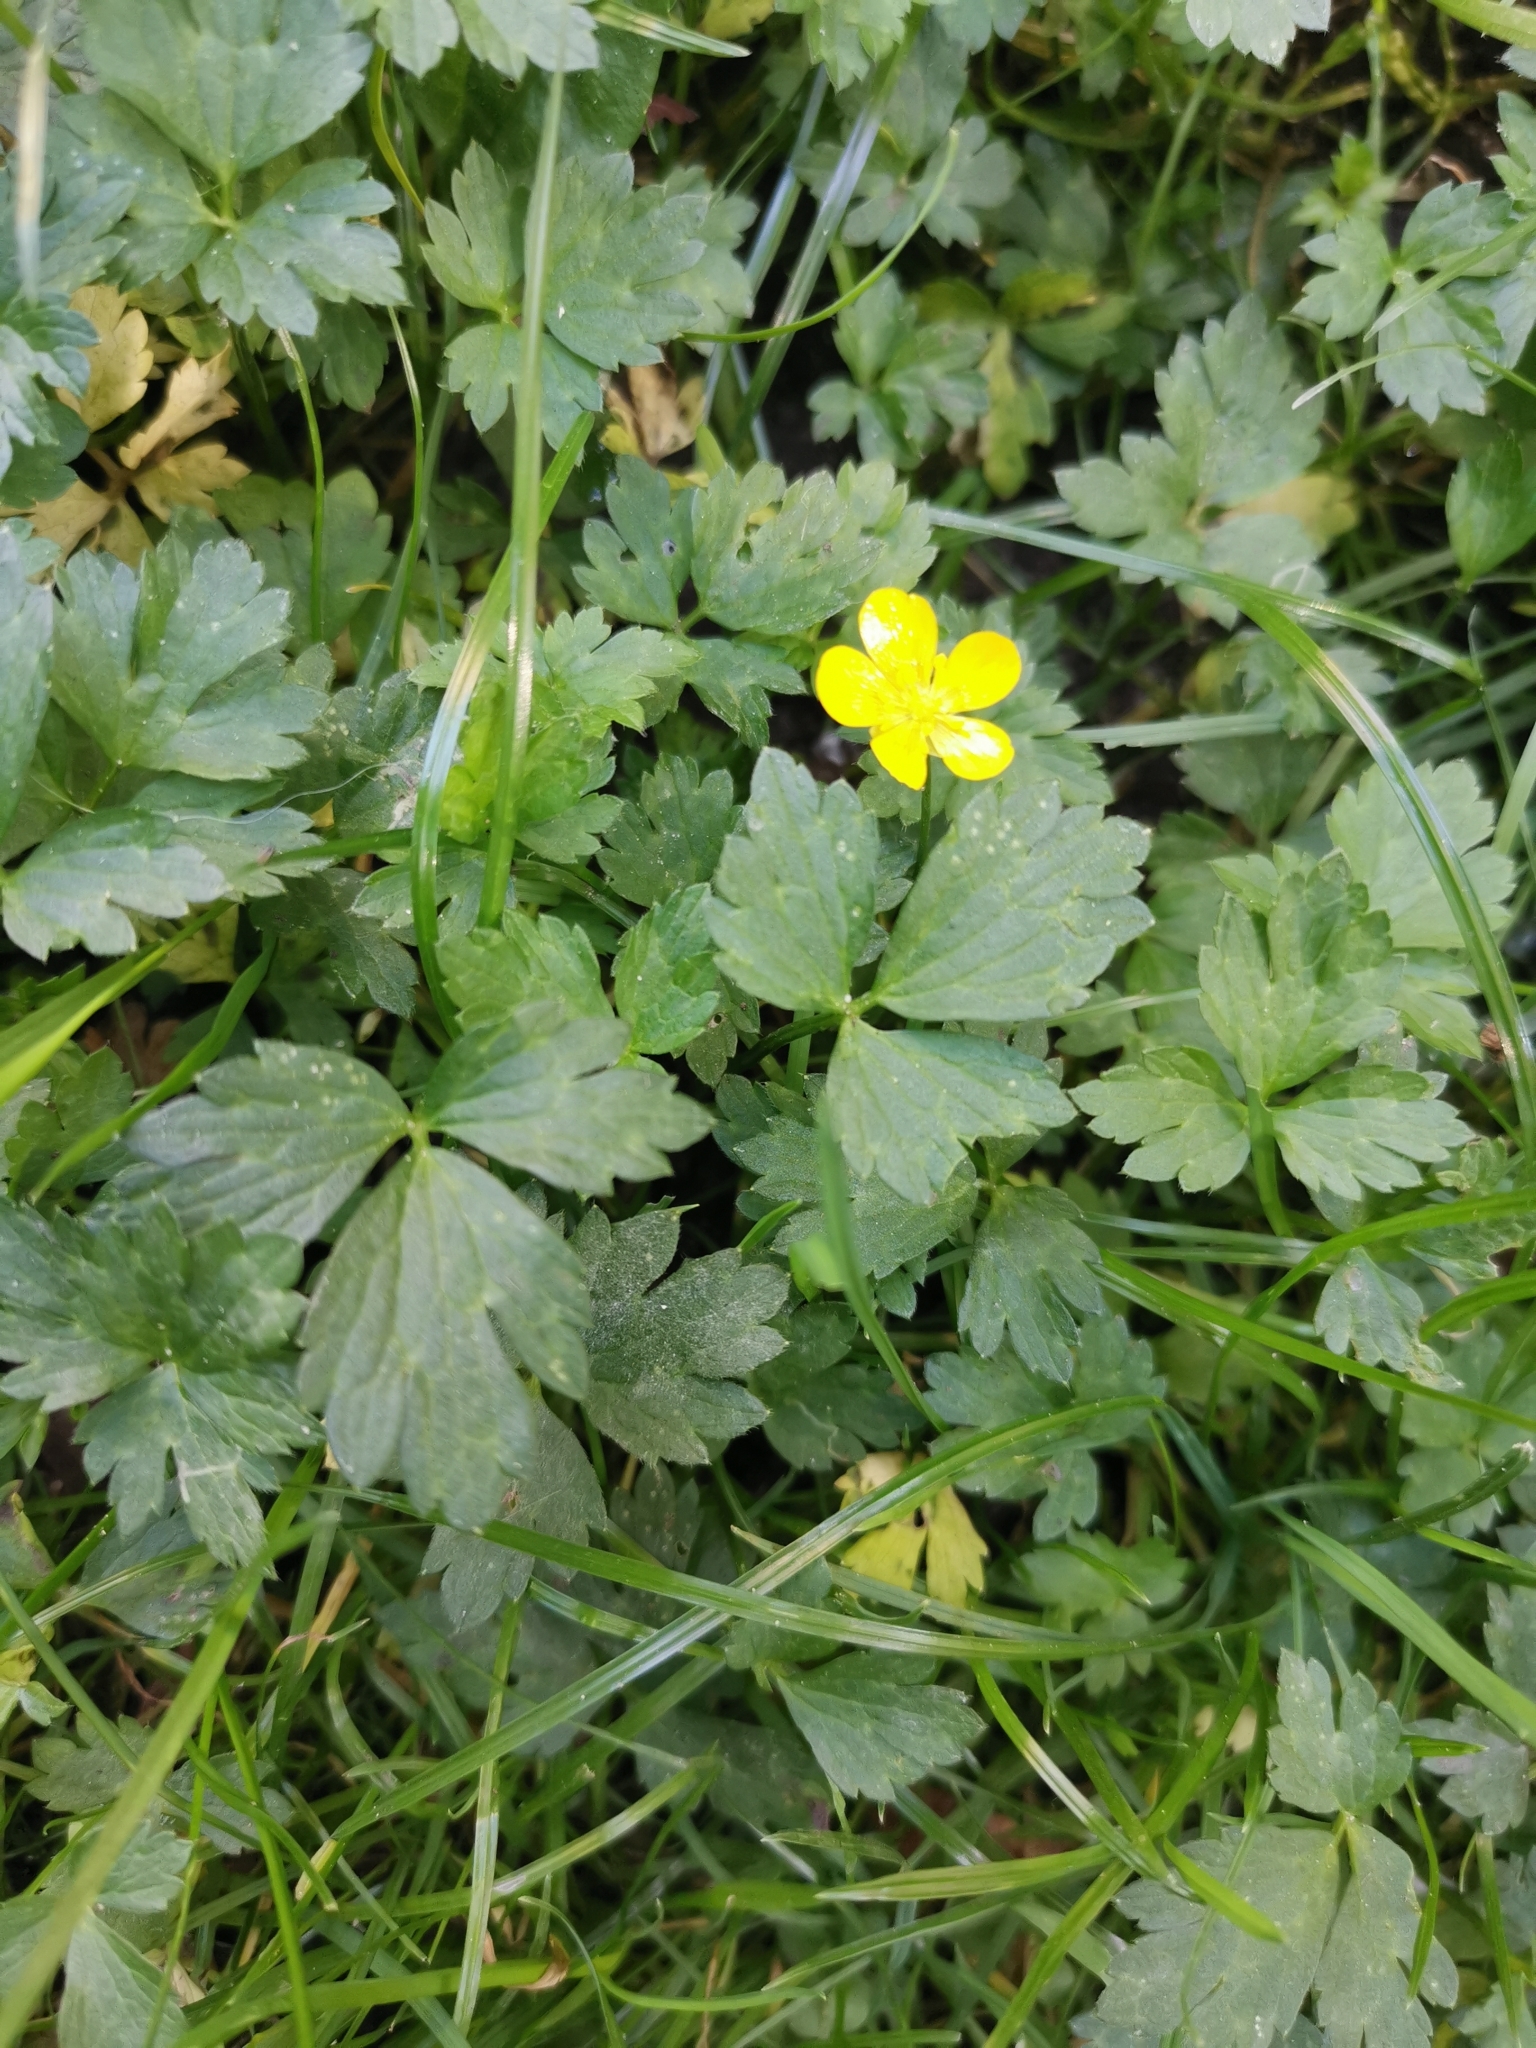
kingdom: Plantae
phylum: Tracheophyta
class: Magnoliopsida
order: Ranunculales
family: Ranunculaceae
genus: Ranunculus
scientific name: Ranunculus repens
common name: Creeping buttercup
